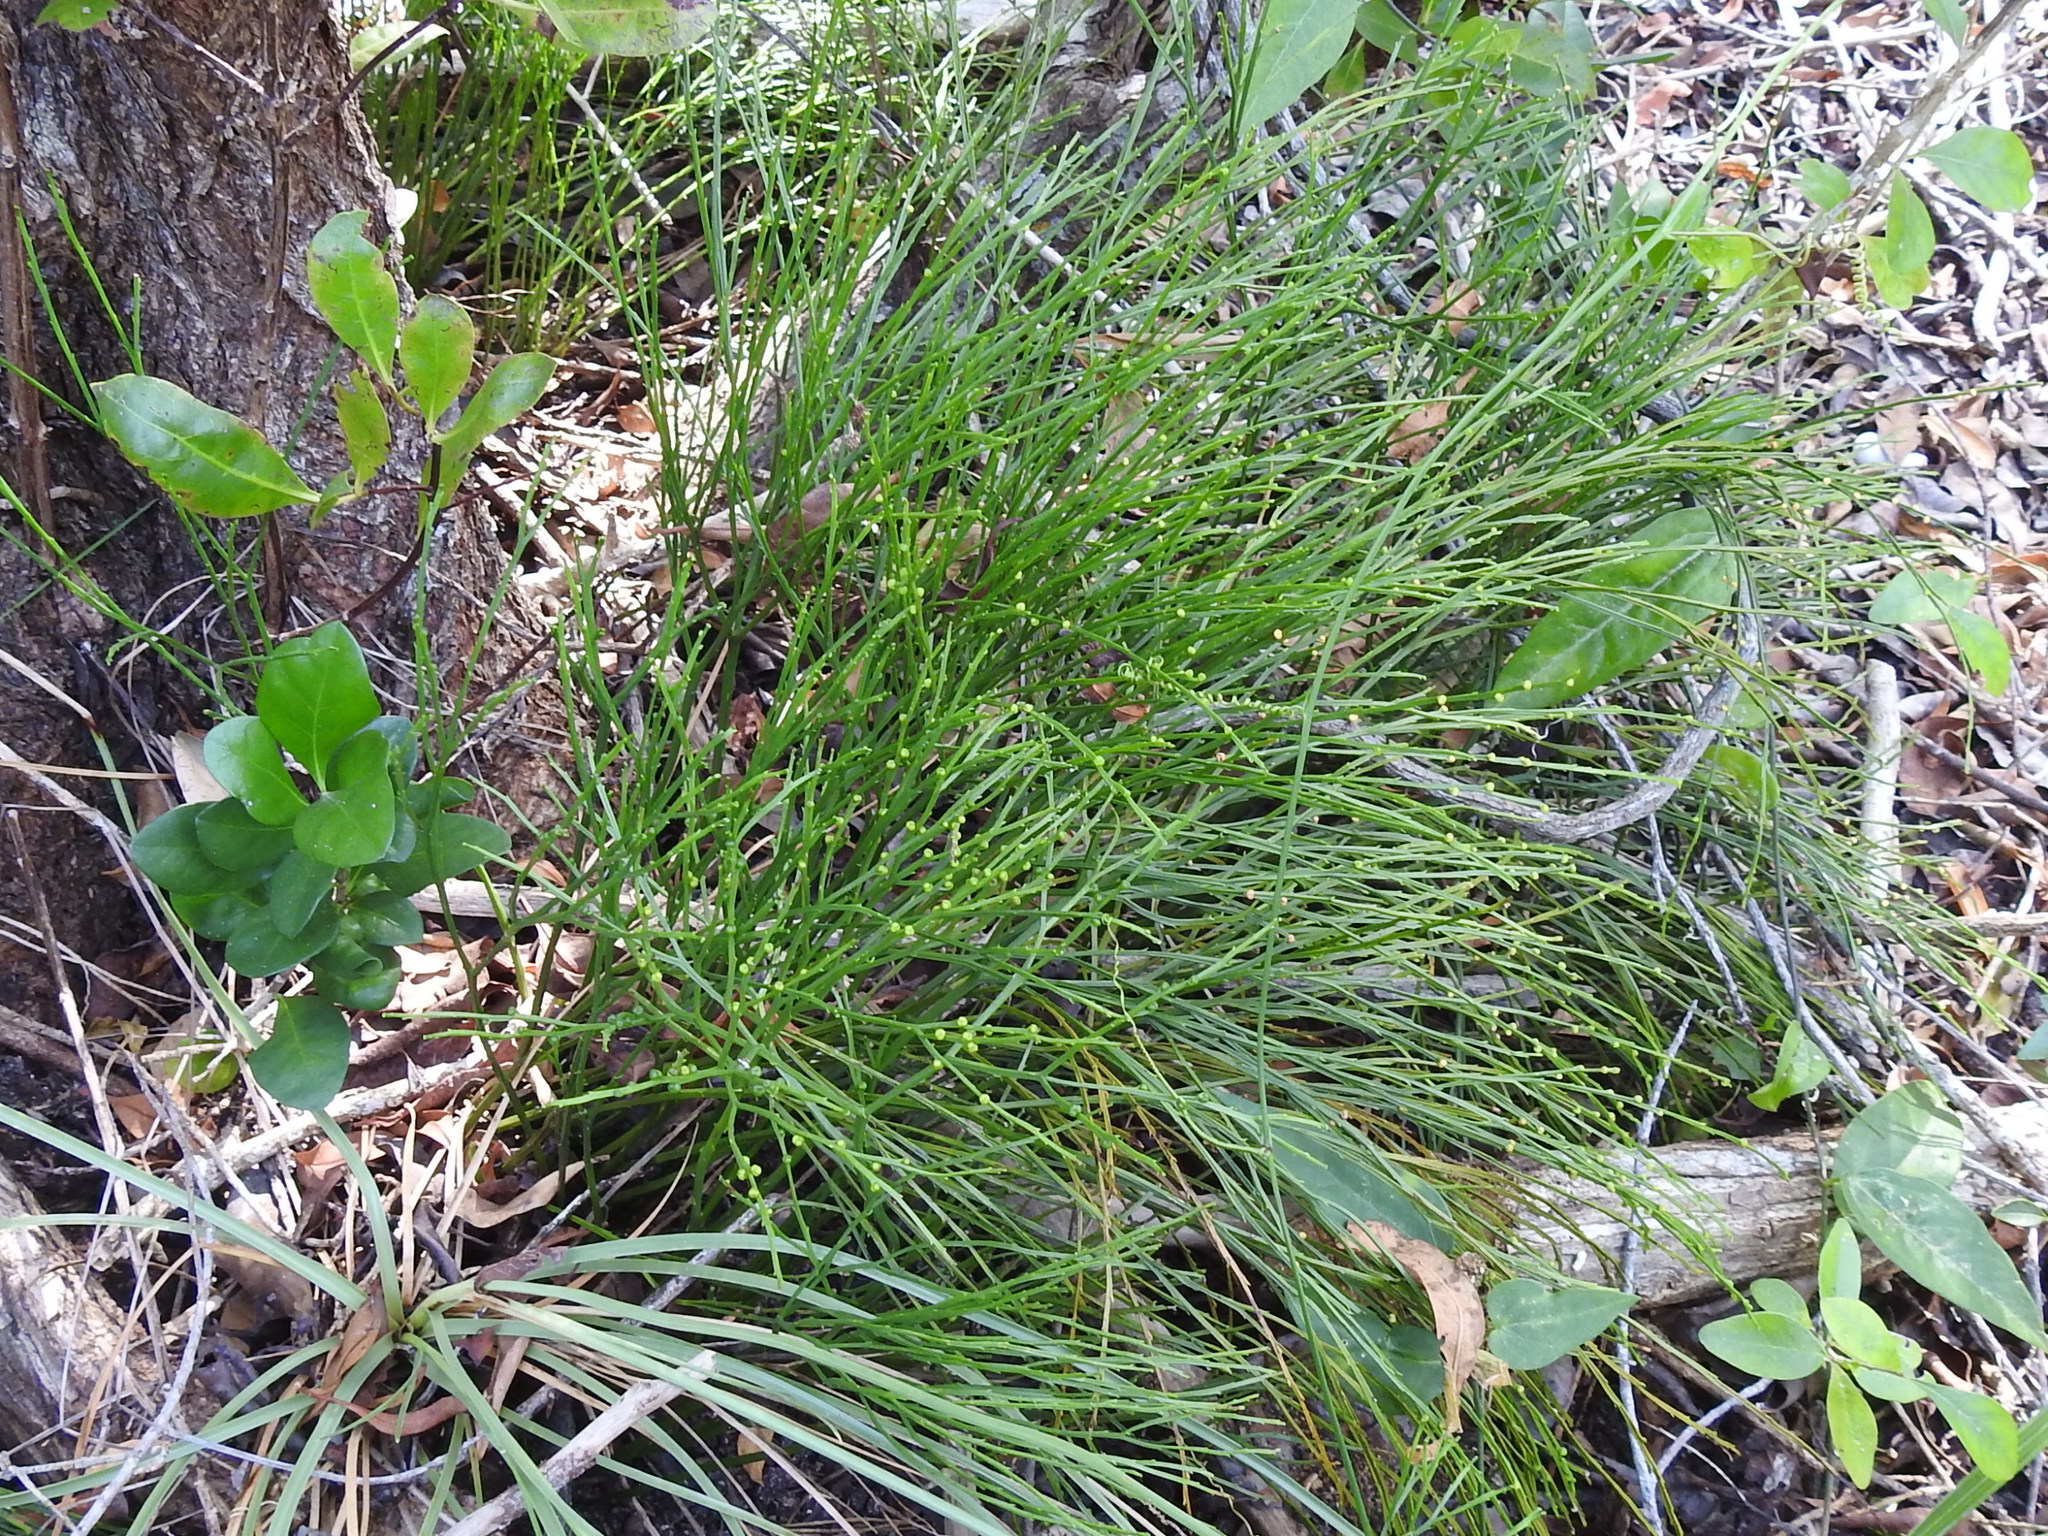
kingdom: Plantae
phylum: Tracheophyta
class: Polypodiopsida
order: Psilotales
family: Psilotaceae
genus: Psilotum
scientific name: Psilotum nudum
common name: Skeleton fork fern
